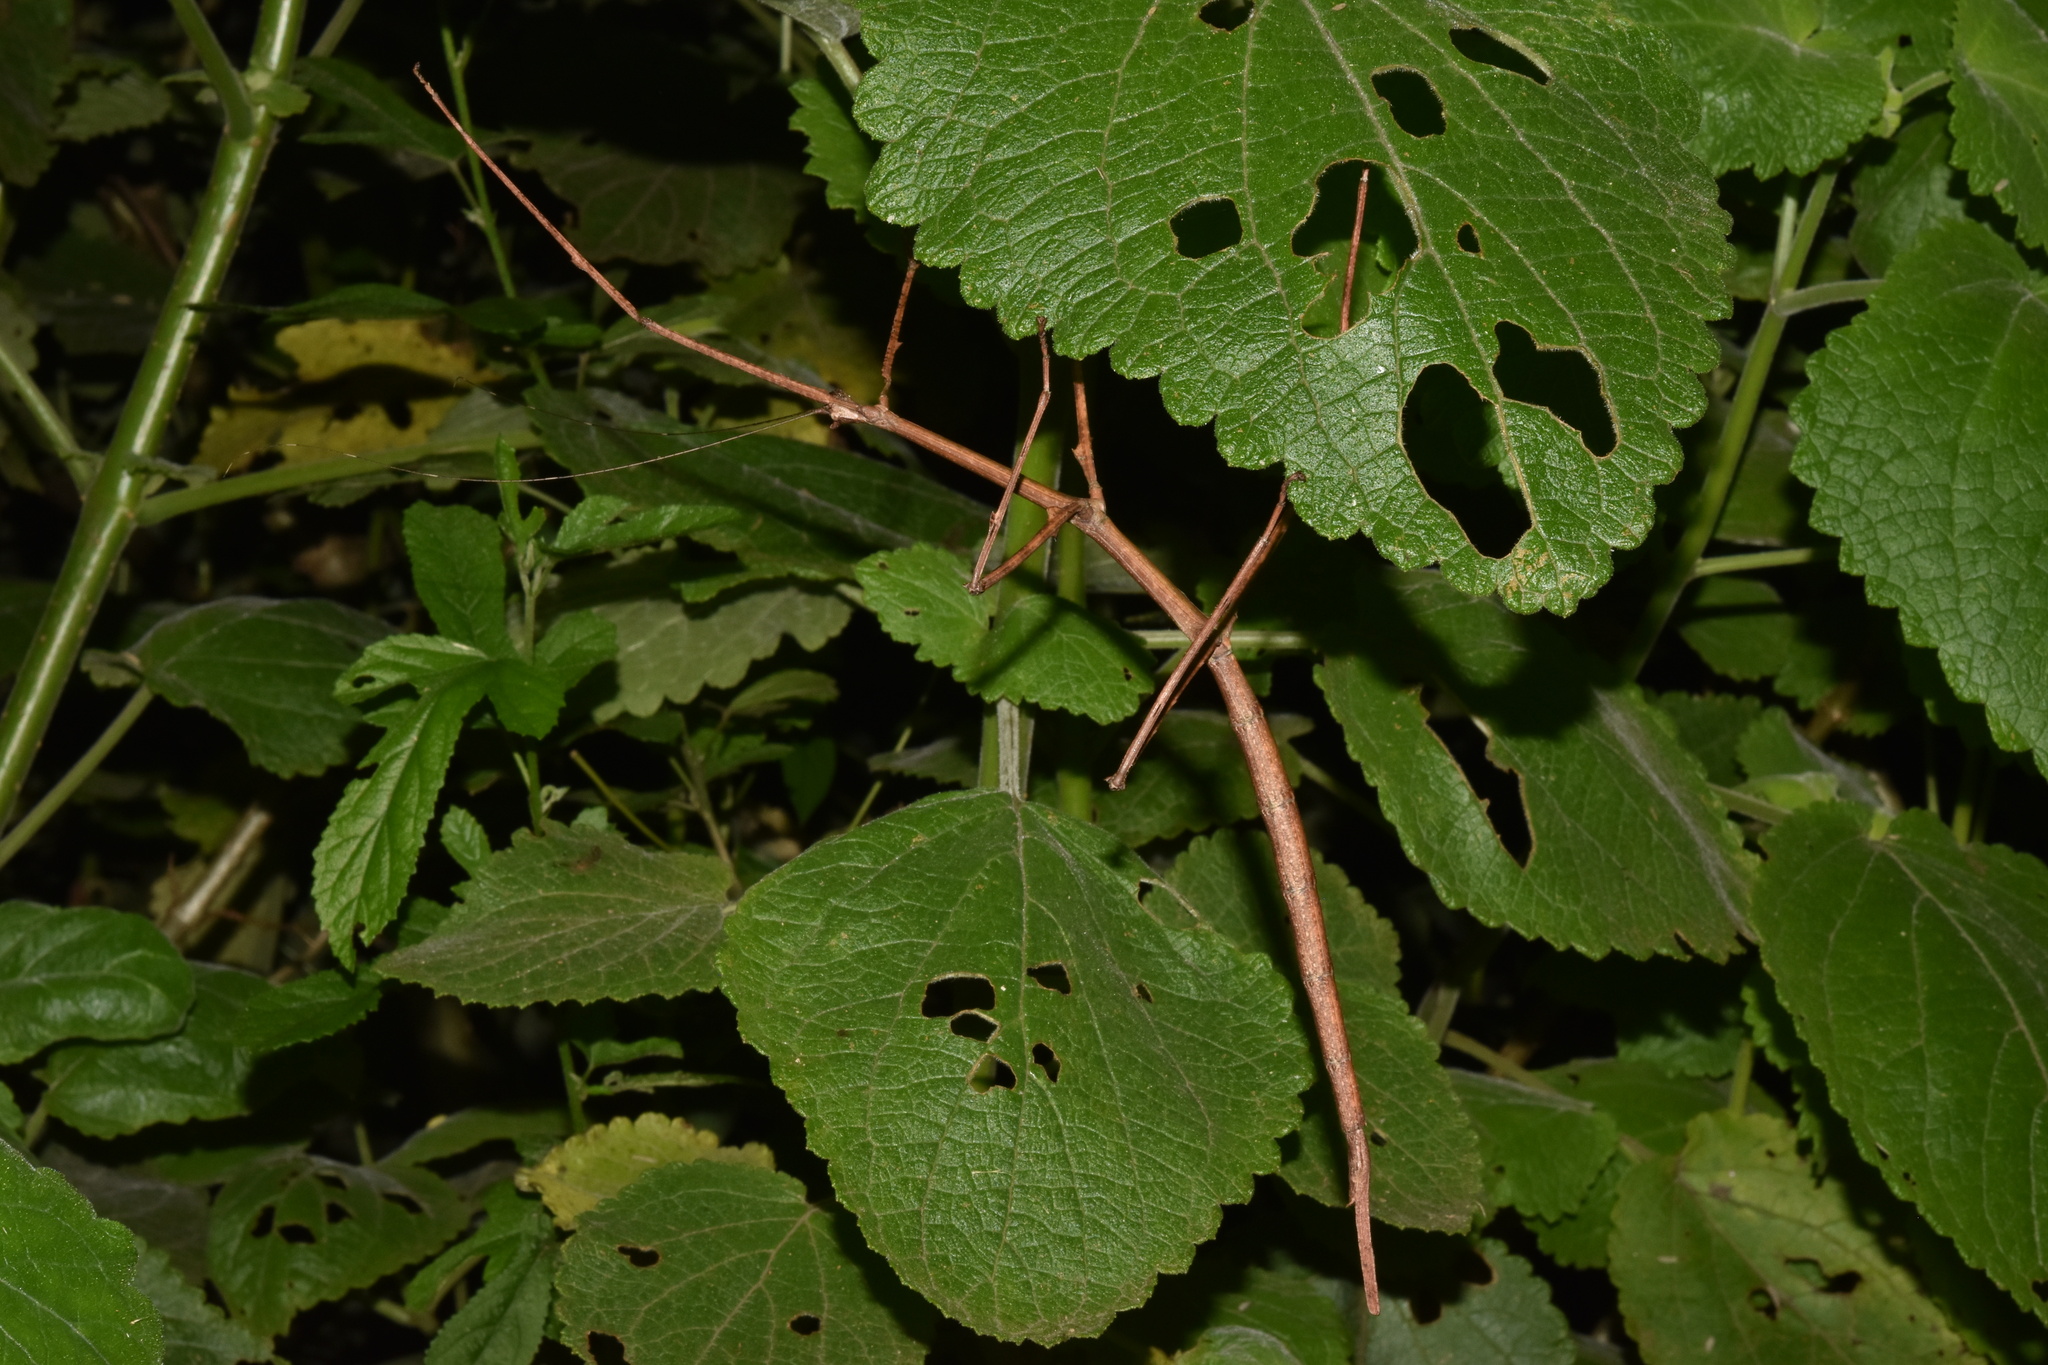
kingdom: Animalia
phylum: Arthropoda
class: Insecta
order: Phasmida
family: Diapheromeridae
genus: Bactricia
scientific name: Bactricia bituberculata
